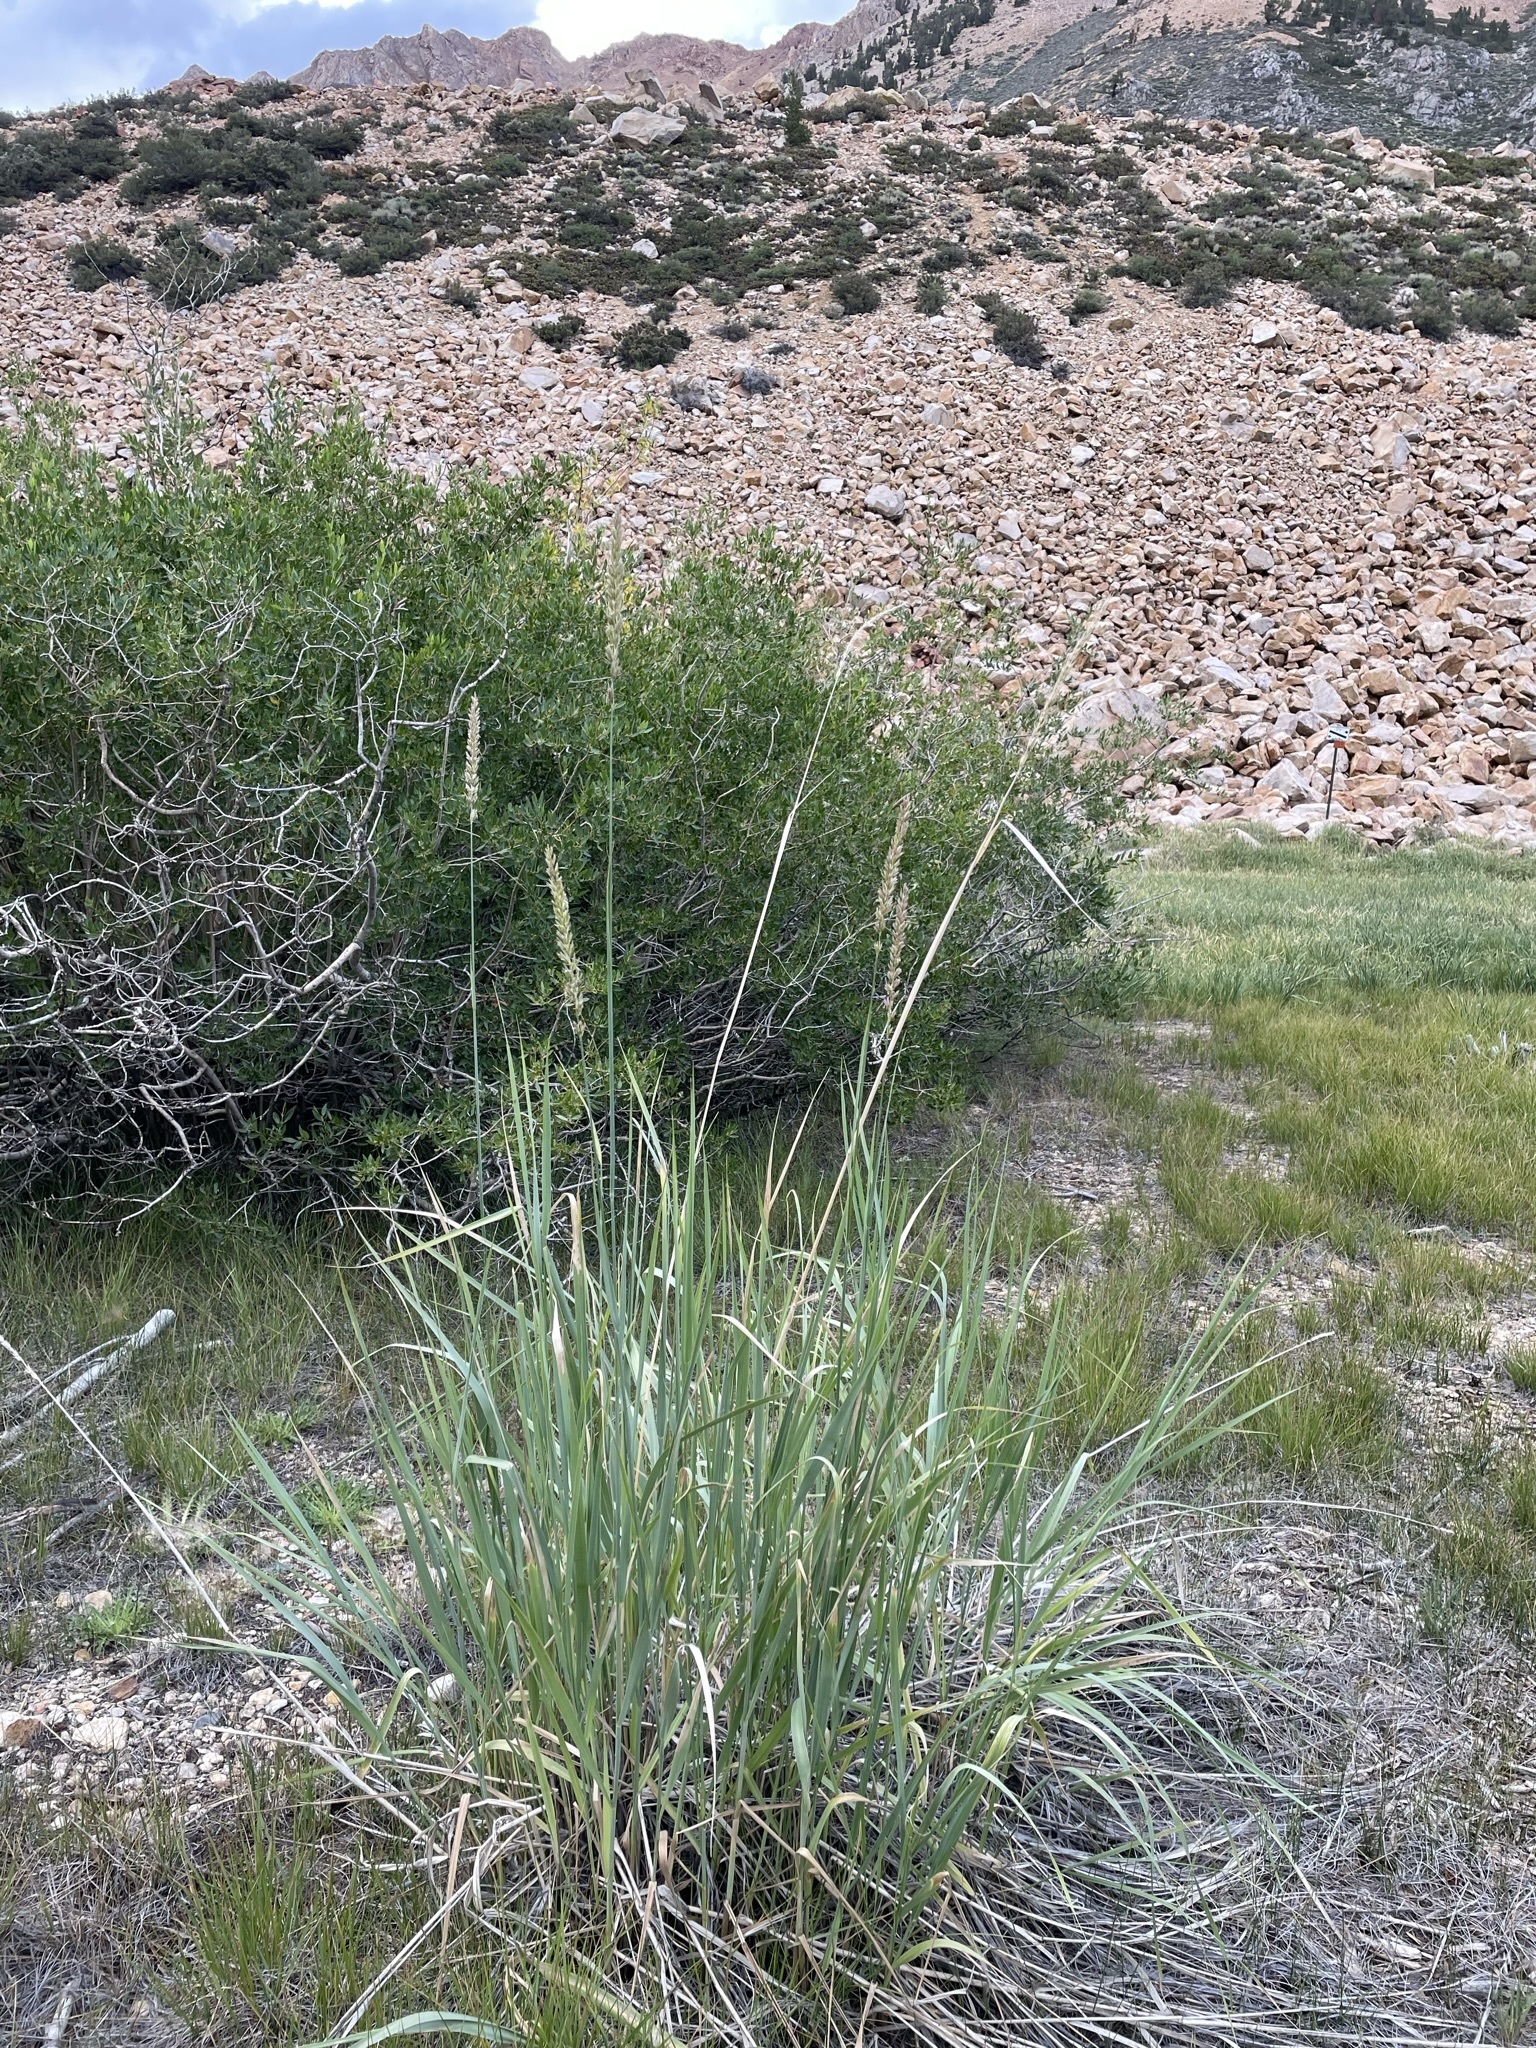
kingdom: Plantae
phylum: Tracheophyta
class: Liliopsida
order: Poales
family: Poaceae
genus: Leymus
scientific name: Leymus cinereus
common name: Basin wild rye
